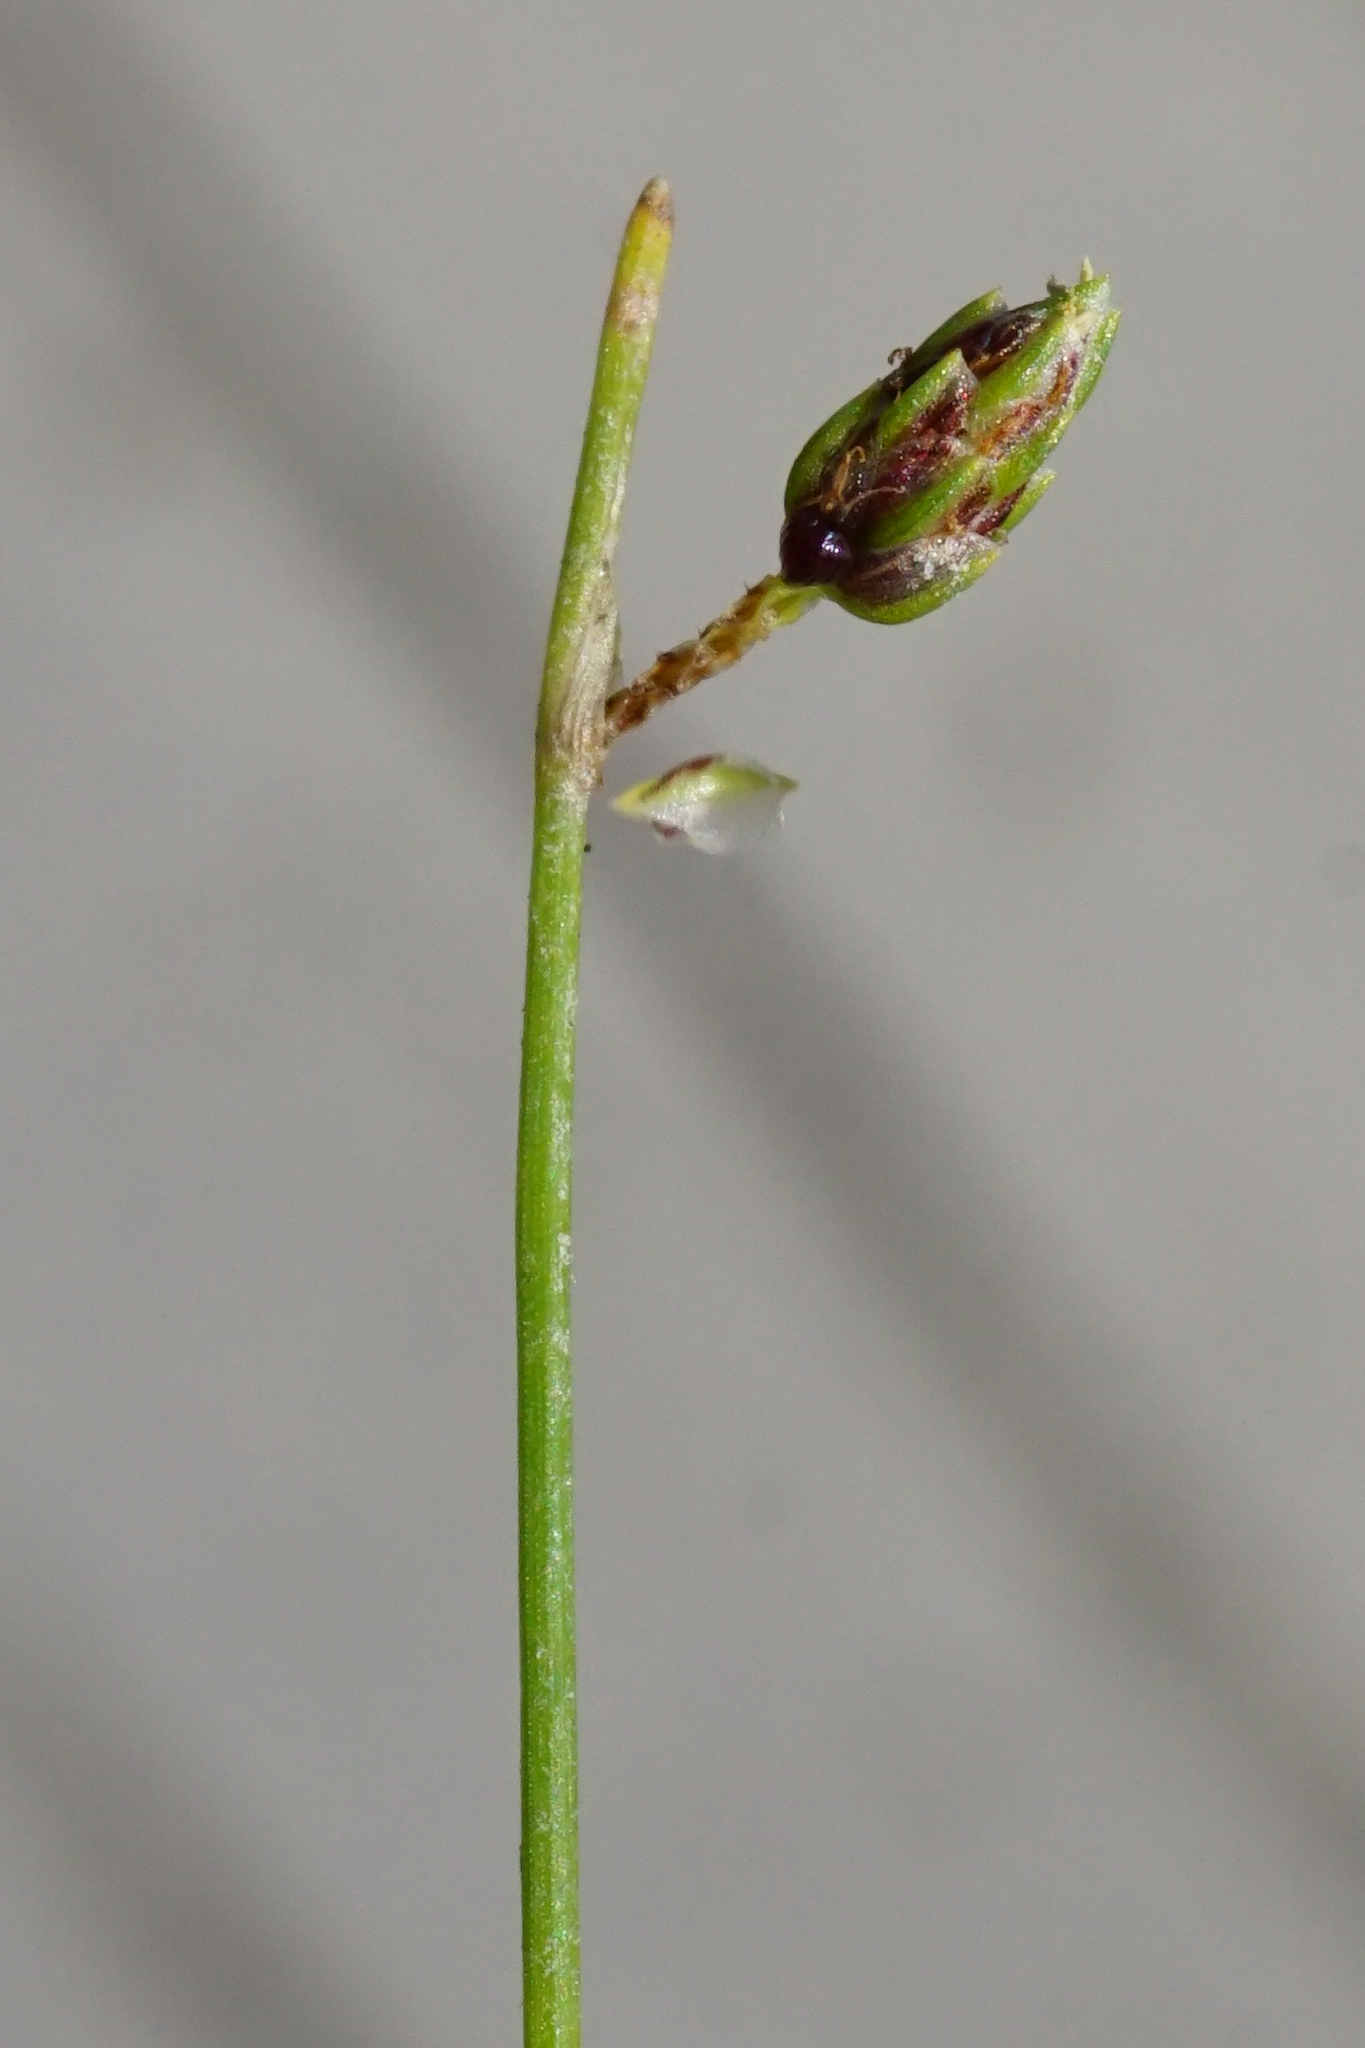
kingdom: Plantae
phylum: Tracheophyta
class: Liliopsida
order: Poales
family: Cyperaceae
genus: Isolepis
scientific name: Isolepis setacea
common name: Bristle club-rush
